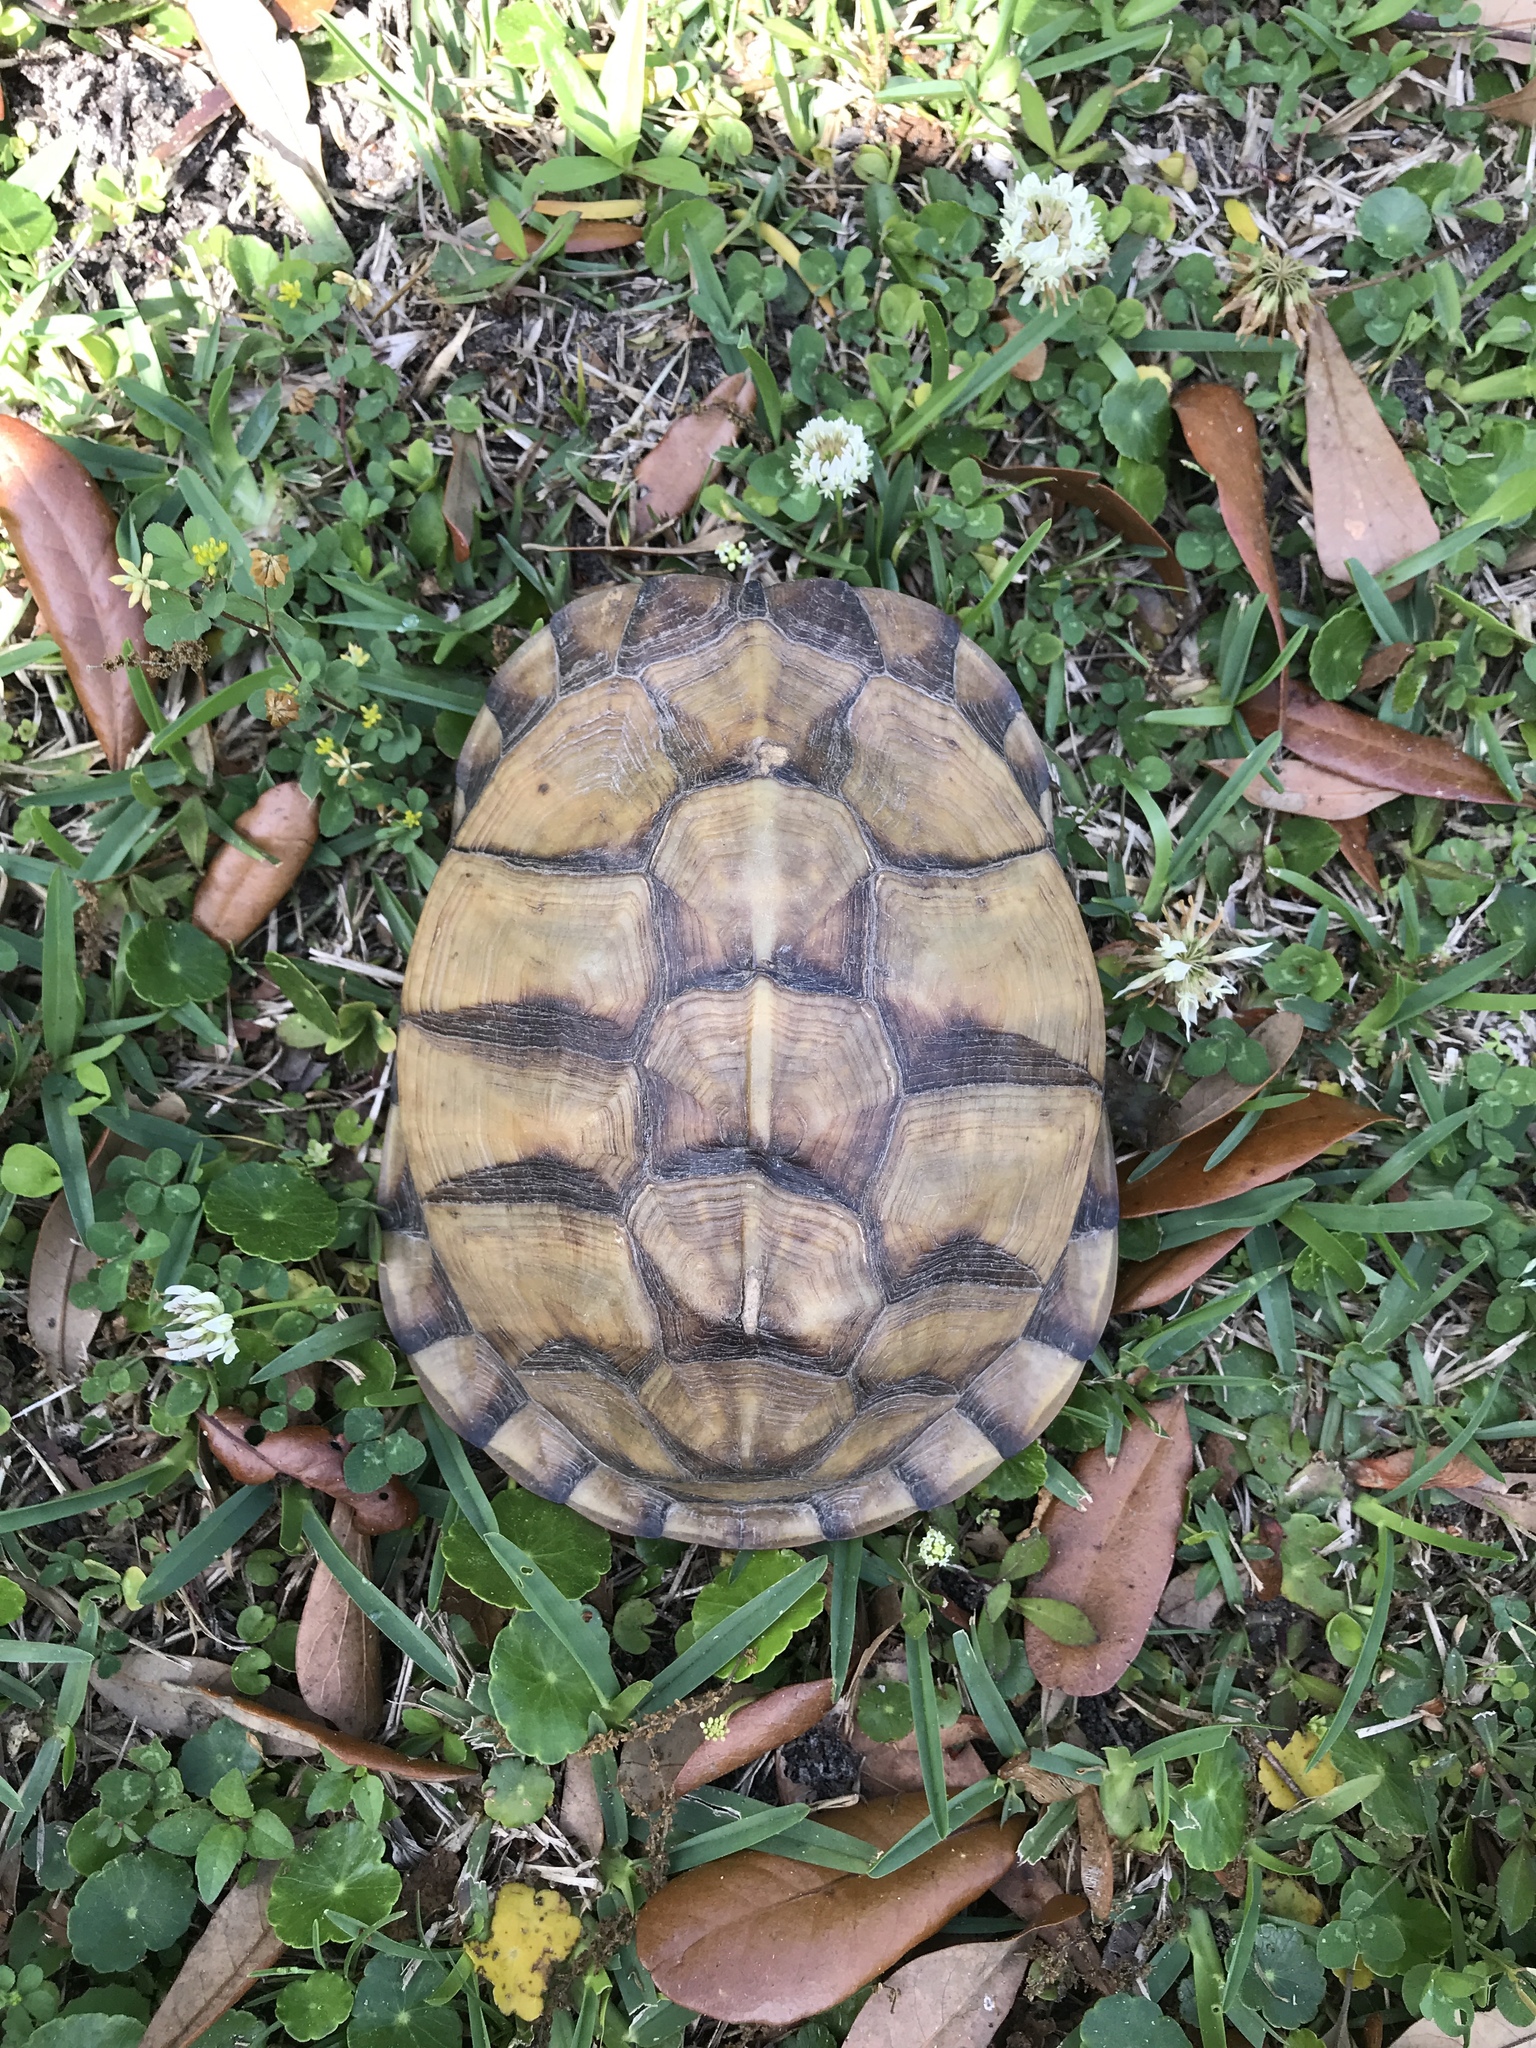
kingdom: Animalia
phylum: Chordata
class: Testudines
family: Emydidae
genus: Terrapene
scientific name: Terrapene carolina
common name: Common box turtle
